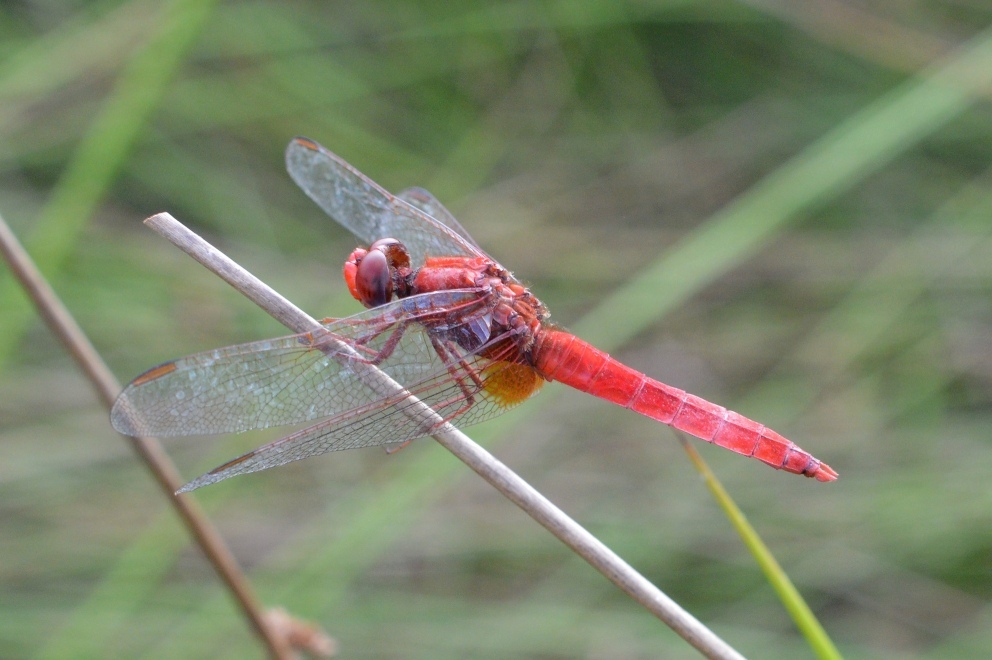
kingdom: Animalia
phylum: Arthropoda
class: Insecta
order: Odonata
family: Libellulidae
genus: Crocothemis
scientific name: Crocothemis erythraea
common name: Scarlet dragonfly
